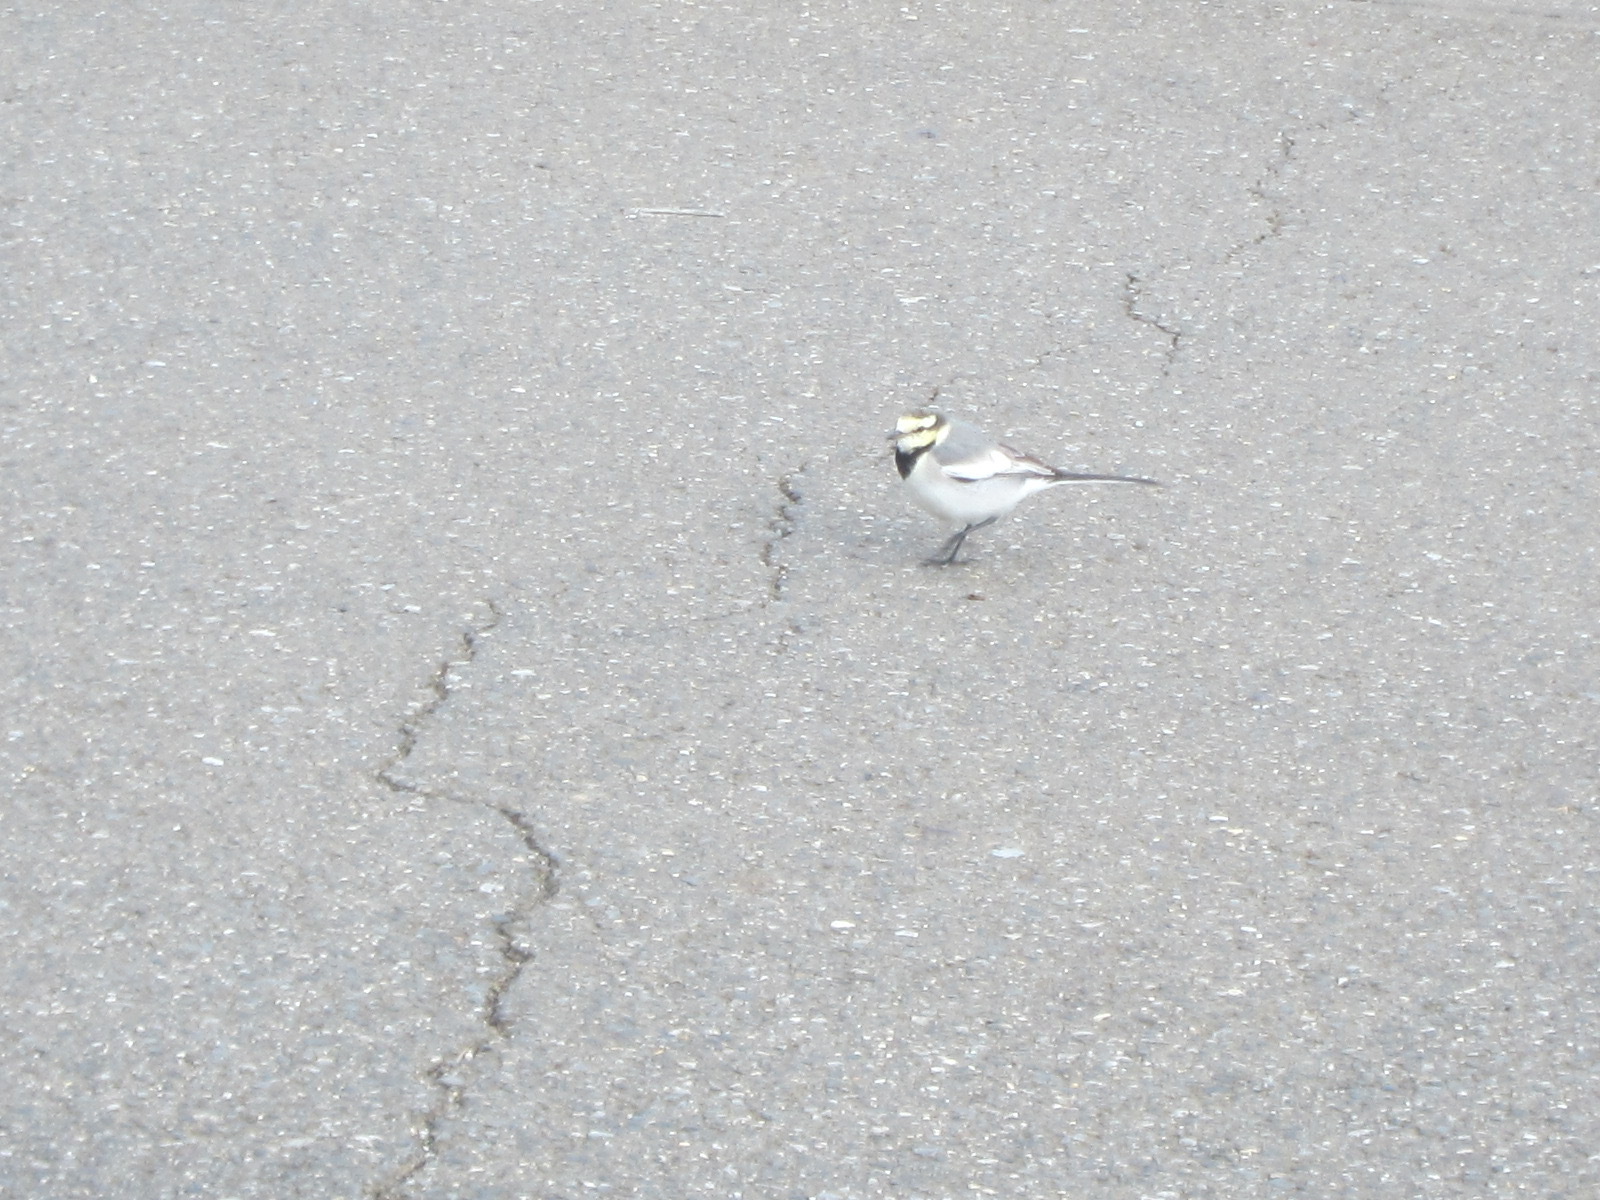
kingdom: Animalia
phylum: Chordata
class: Aves
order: Passeriformes
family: Motacillidae
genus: Motacilla
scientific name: Motacilla alba
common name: White wagtail
